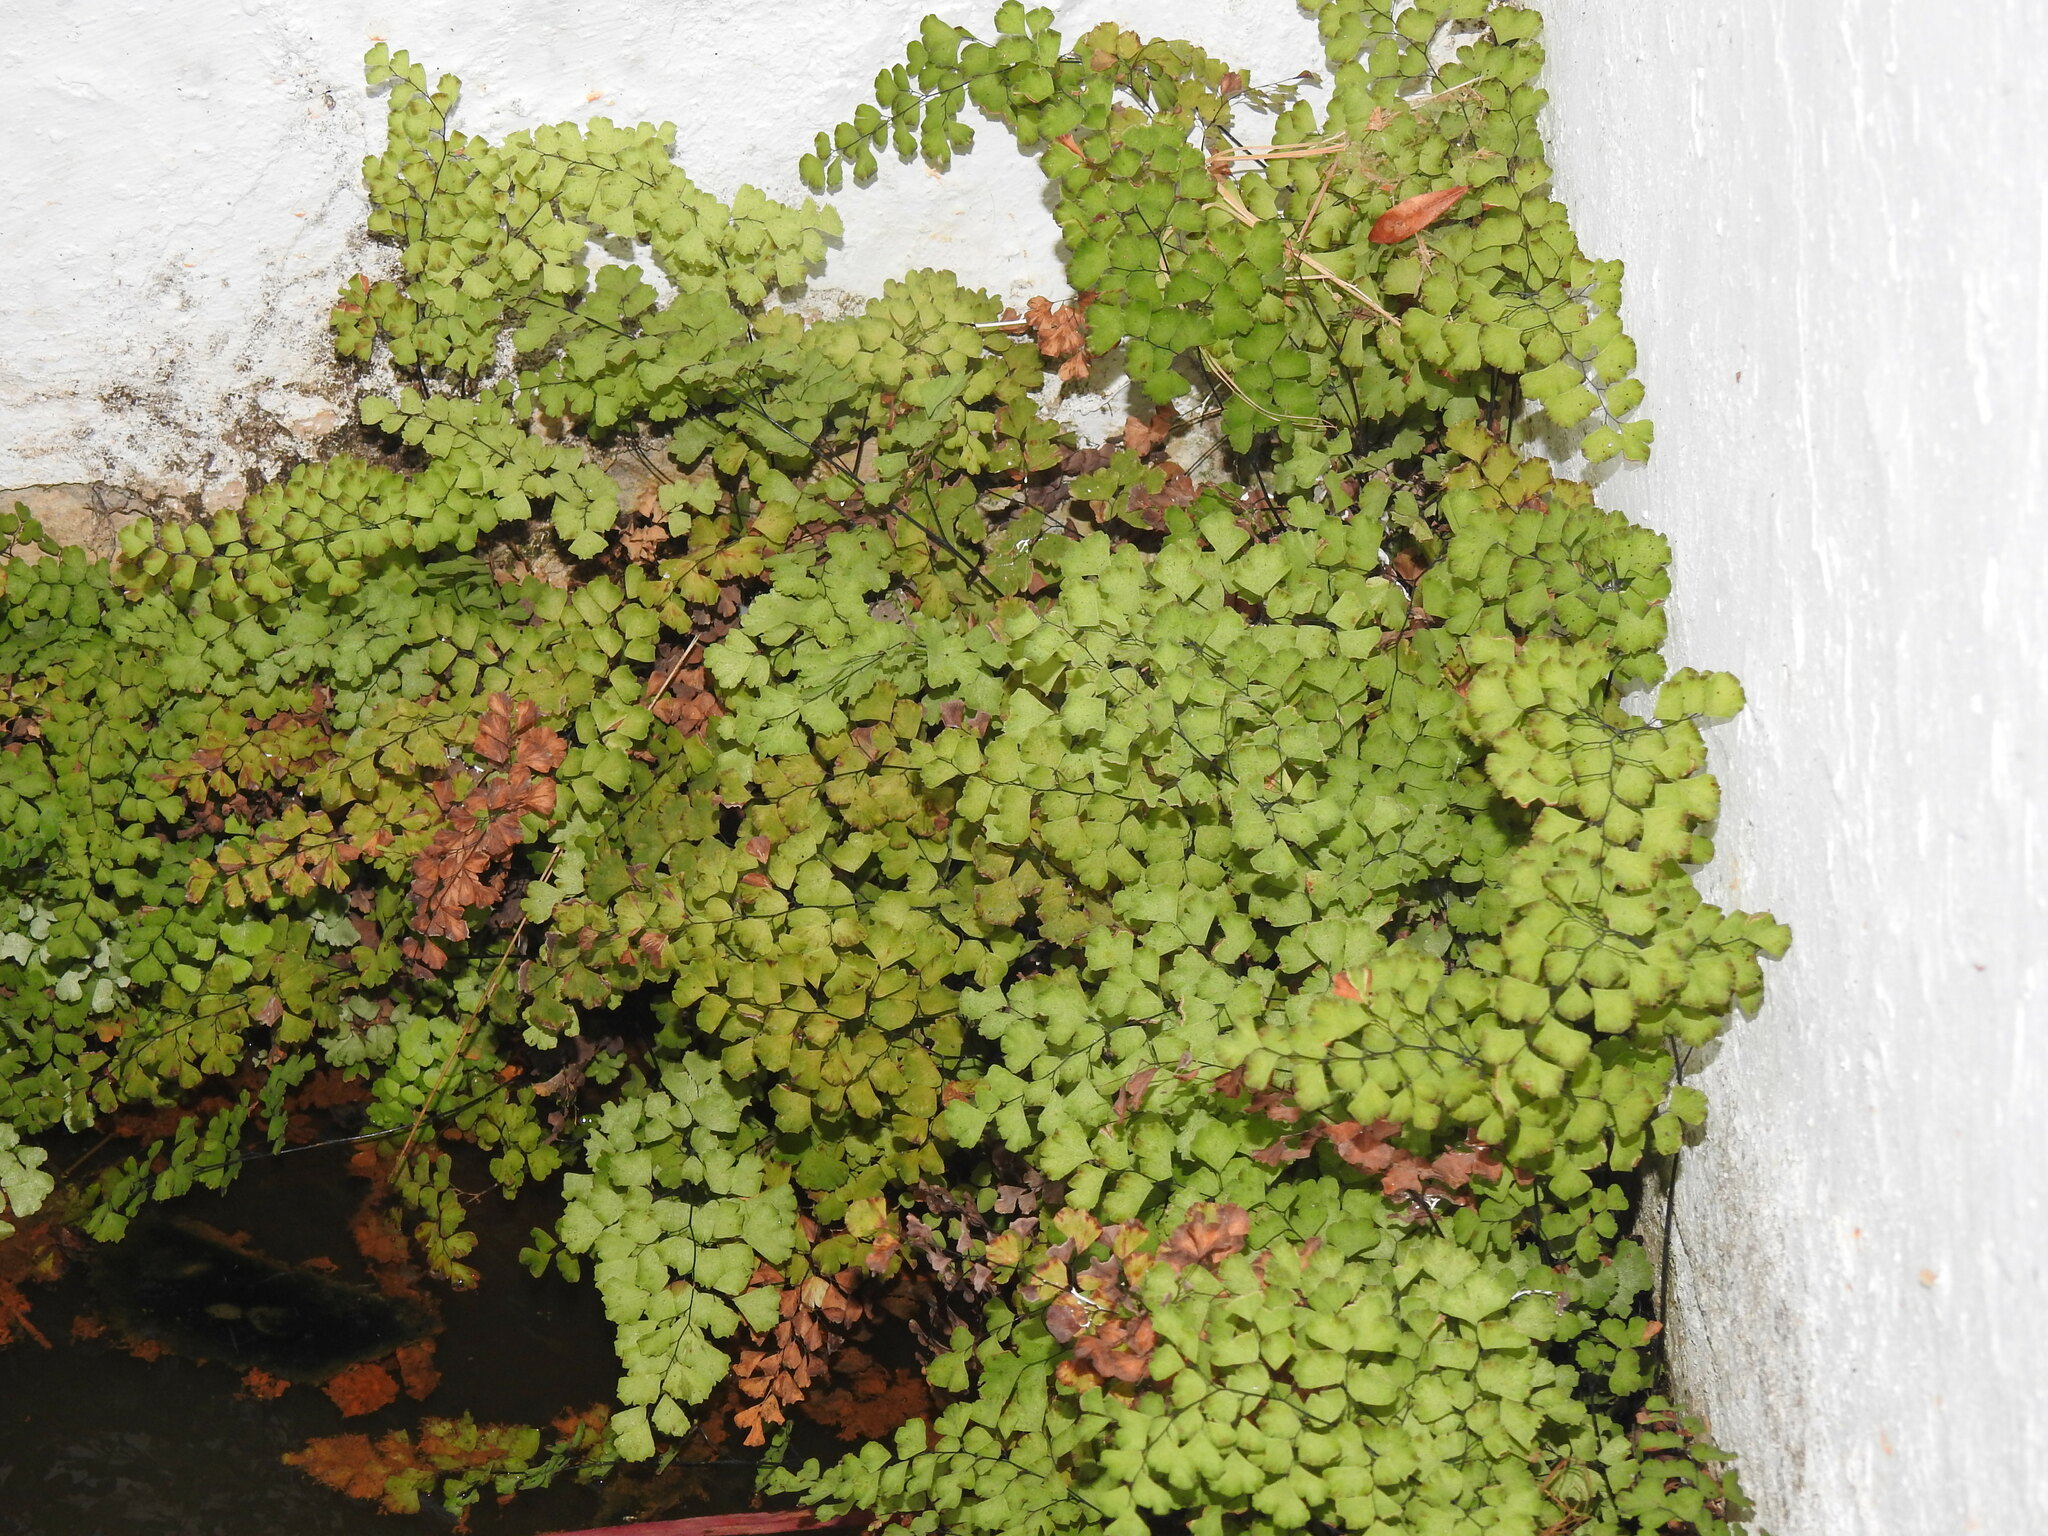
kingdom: Plantae
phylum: Tracheophyta
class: Polypodiopsida
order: Polypodiales
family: Pteridaceae
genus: Adiantum
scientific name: Adiantum capillus-veneris
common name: Maidenhair fern
